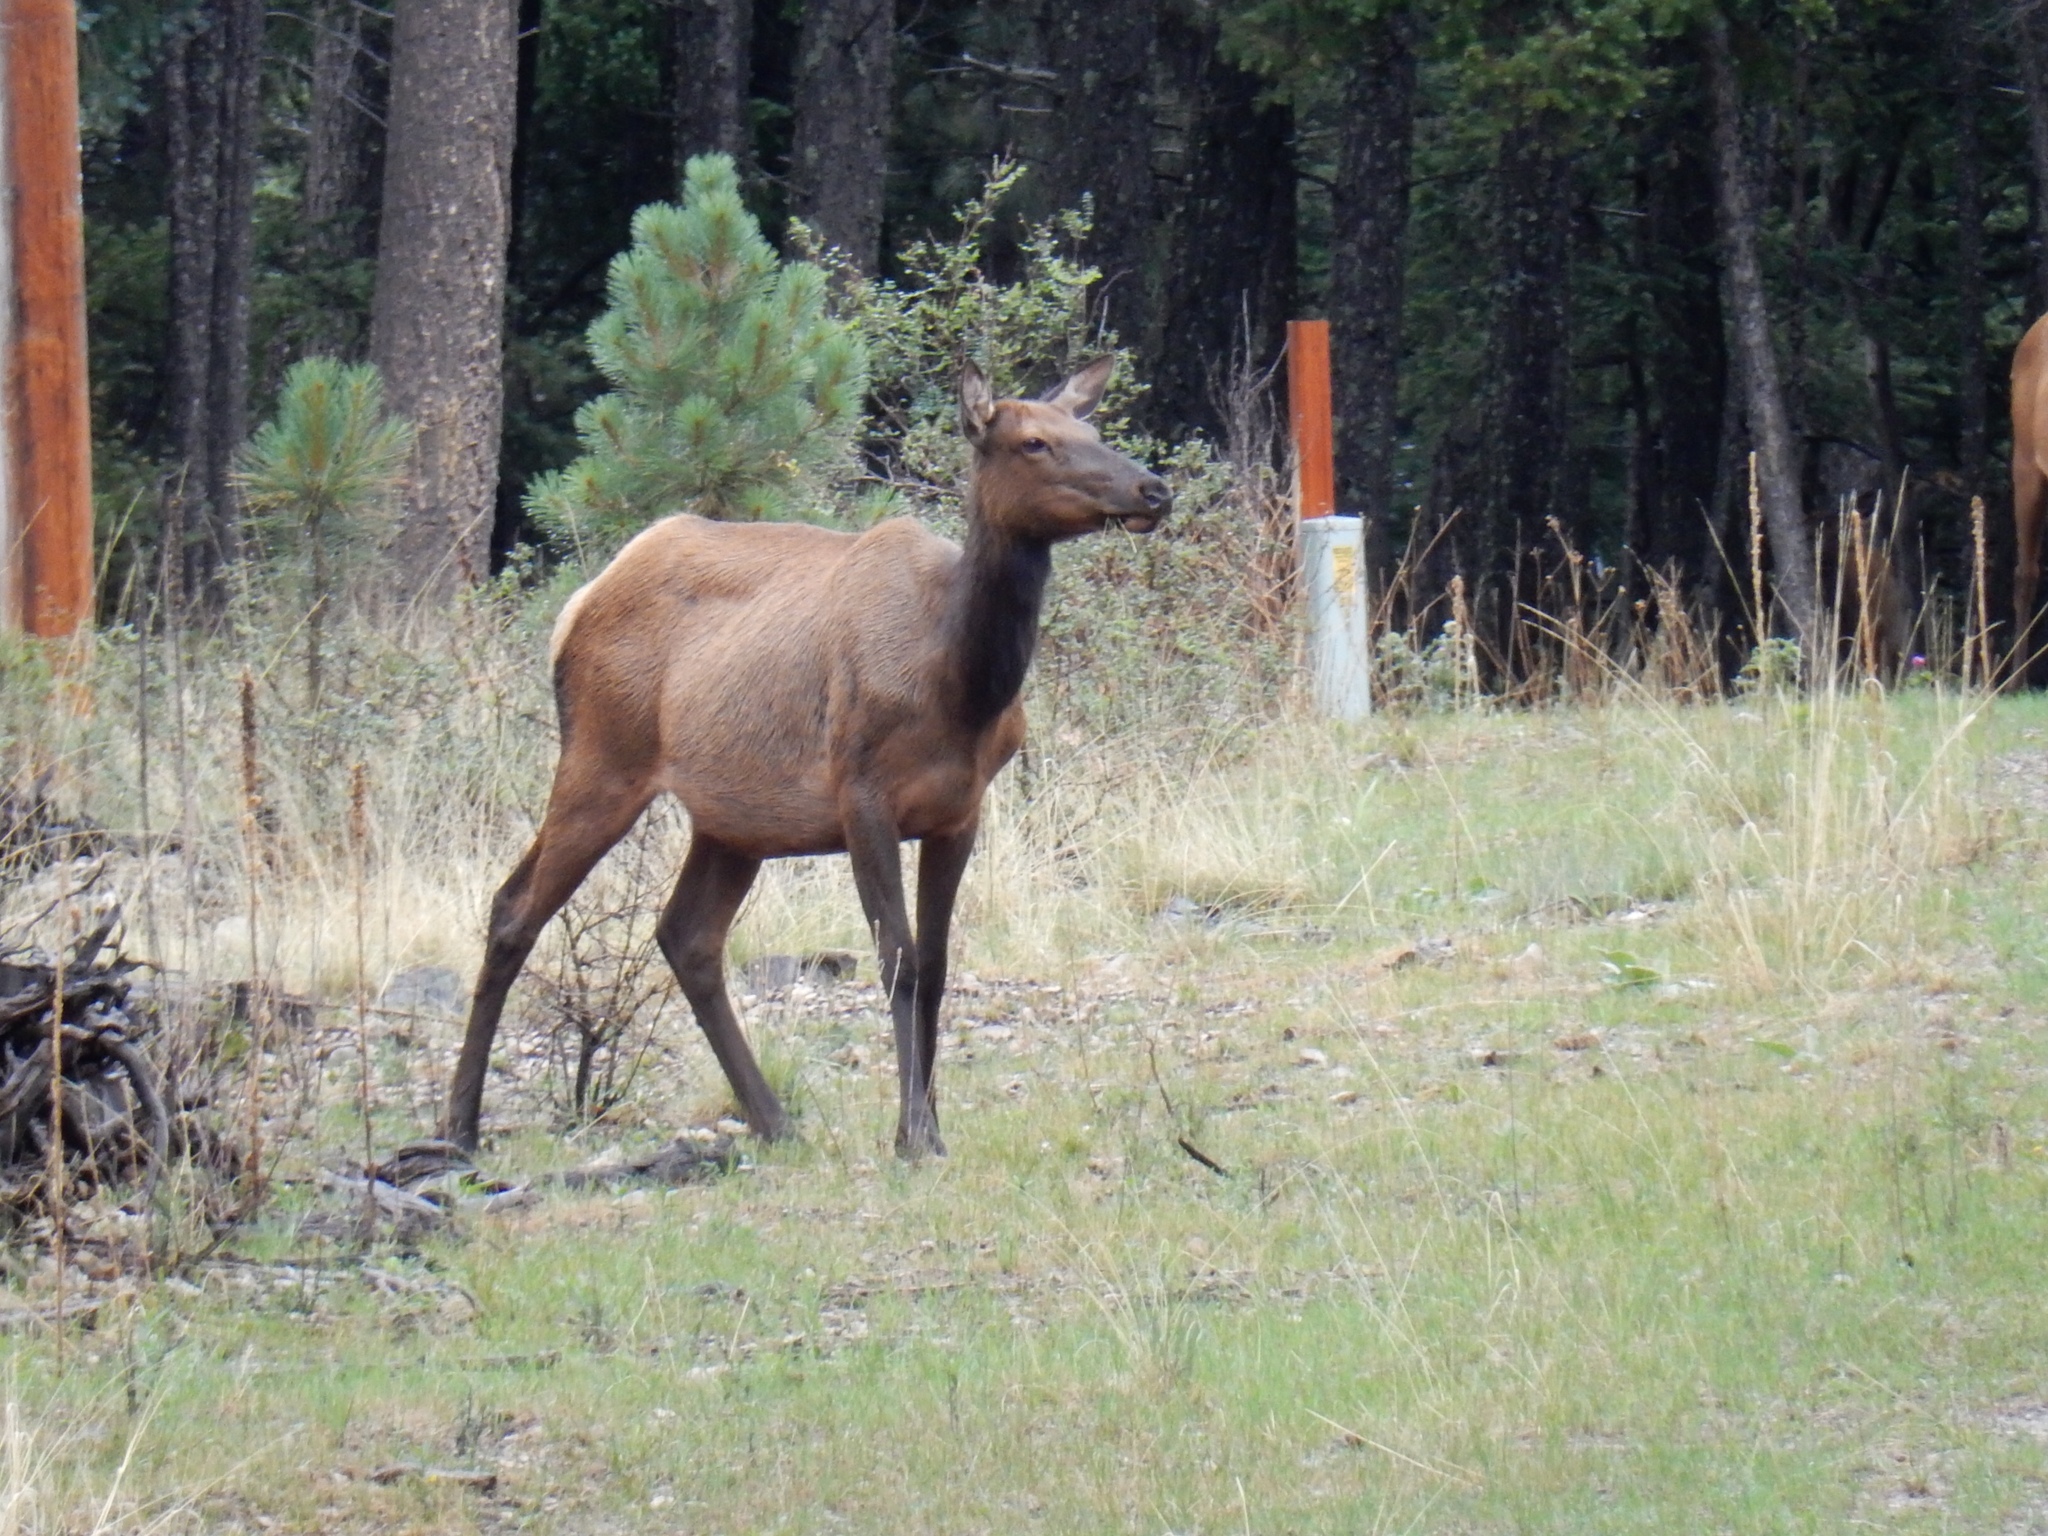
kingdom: Animalia
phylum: Chordata
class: Mammalia
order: Artiodactyla
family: Cervidae
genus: Cervus
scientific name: Cervus elaphus
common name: Red deer
